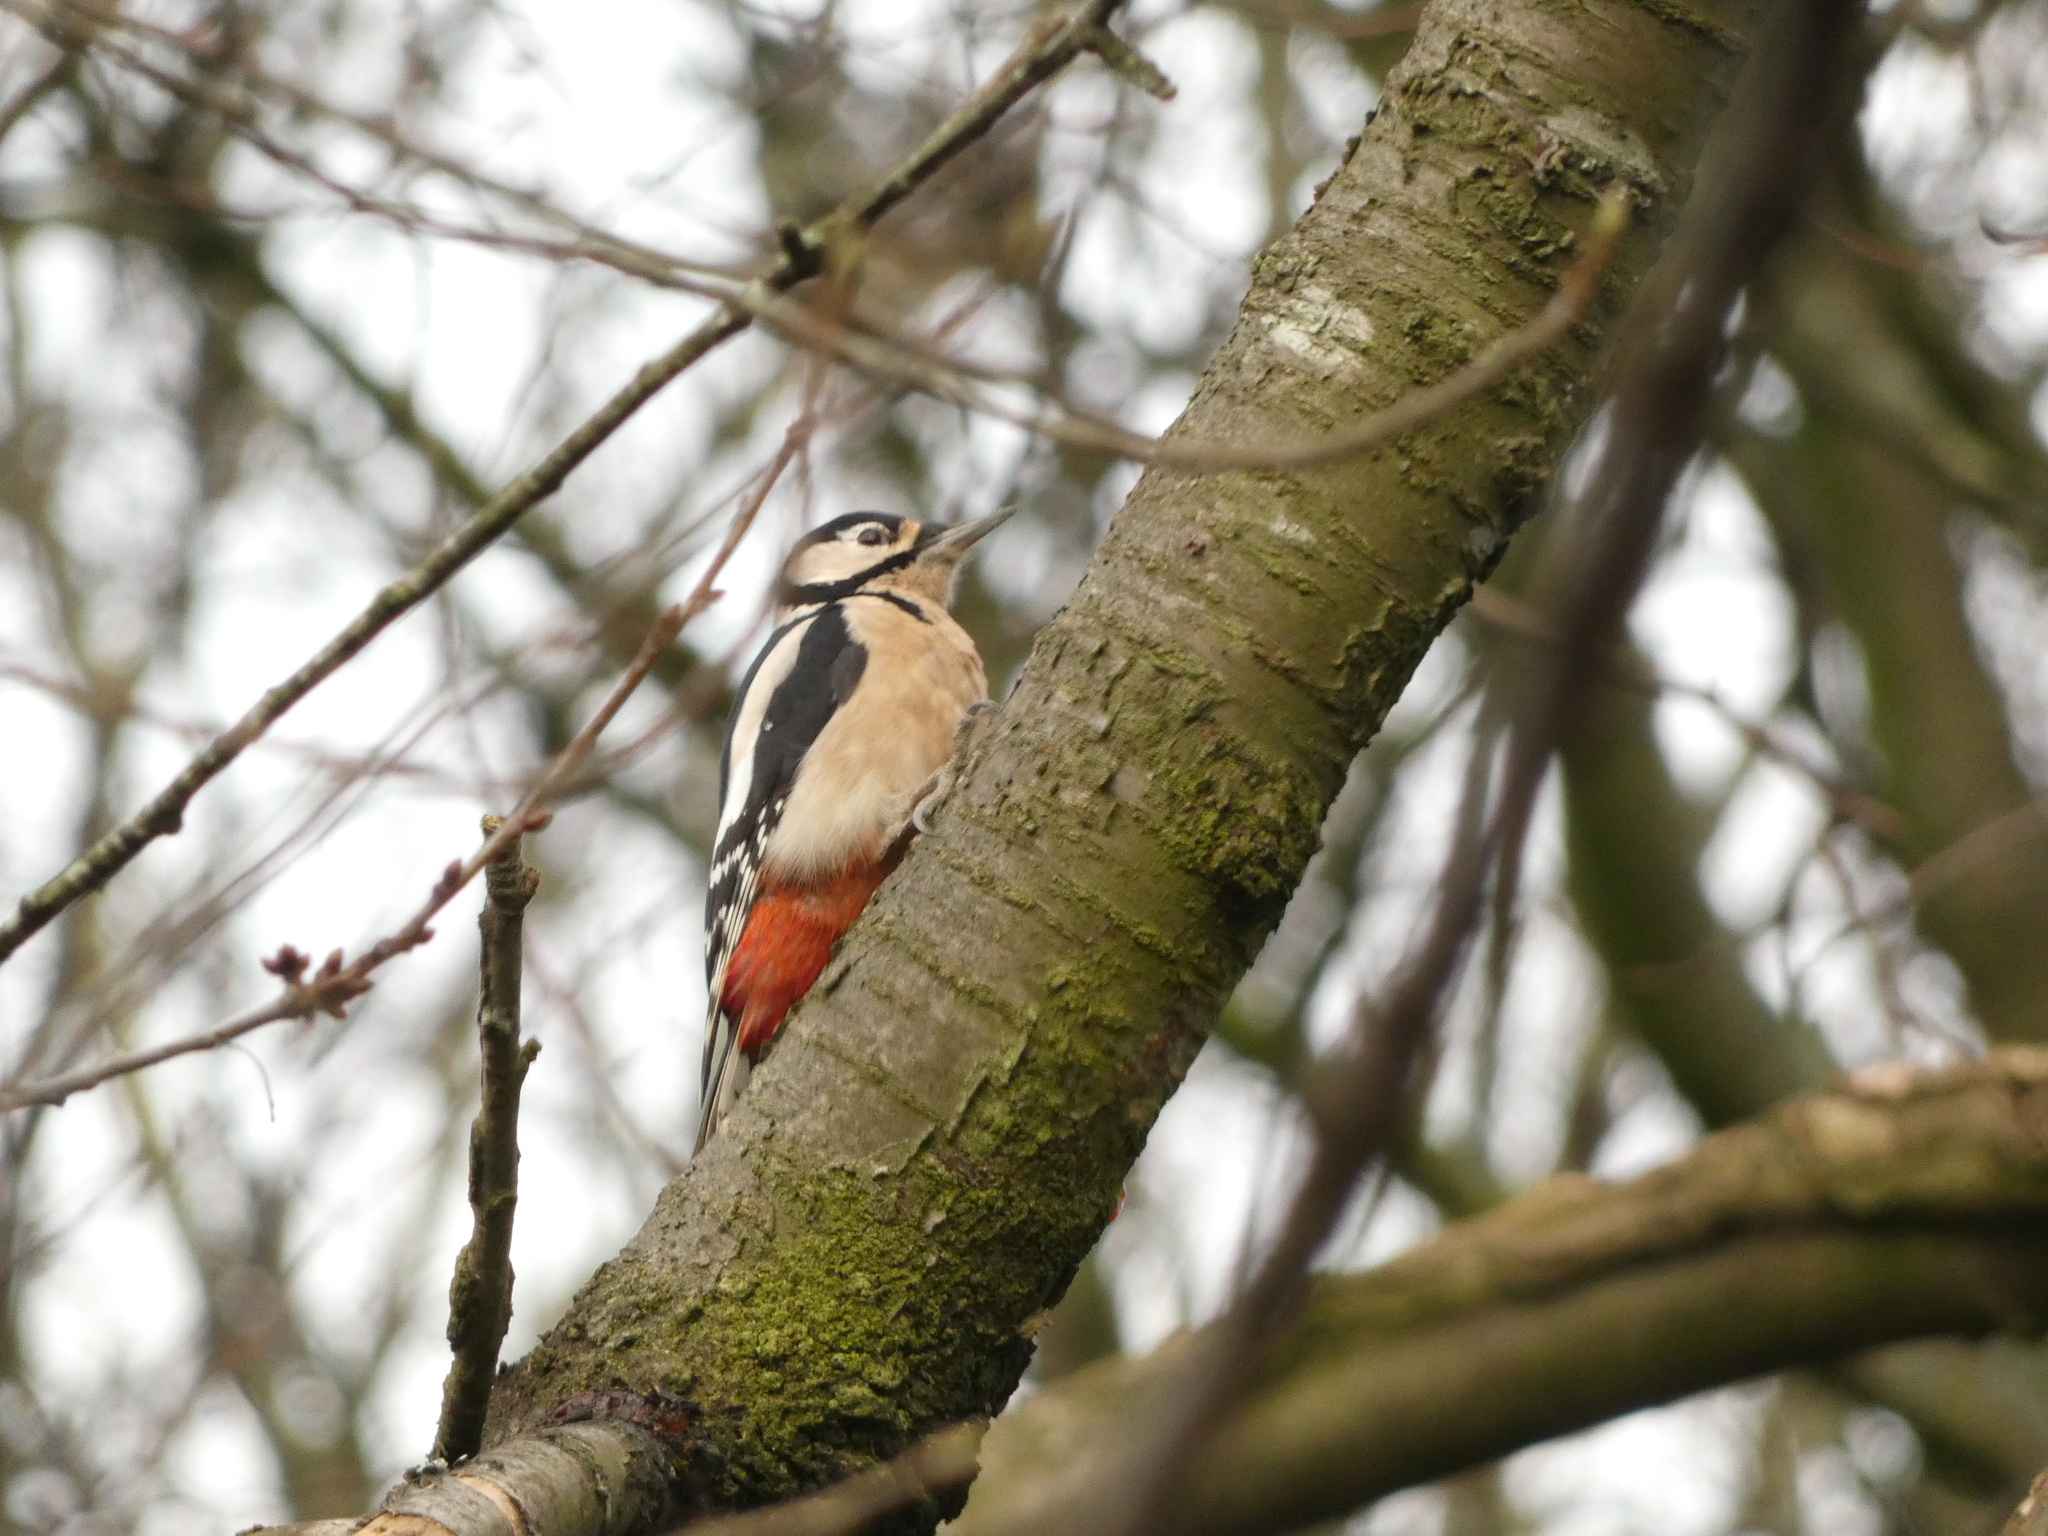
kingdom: Animalia
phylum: Chordata
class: Aves
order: Piciformes
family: Picidae
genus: Dendrocopos
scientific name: Dendrocopos major
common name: Great spotted woodpecker
